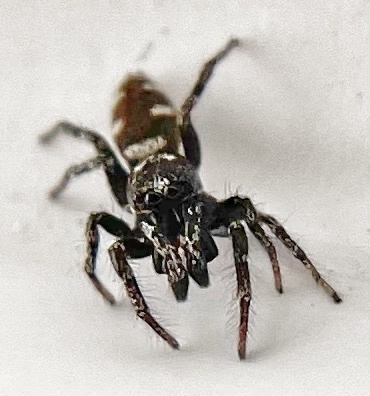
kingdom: Animalia
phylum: Arthropoda
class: Arachnida
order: Araneae
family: Salticidae
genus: Salticus
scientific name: Salticus scenicus
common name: Zebra jumper
